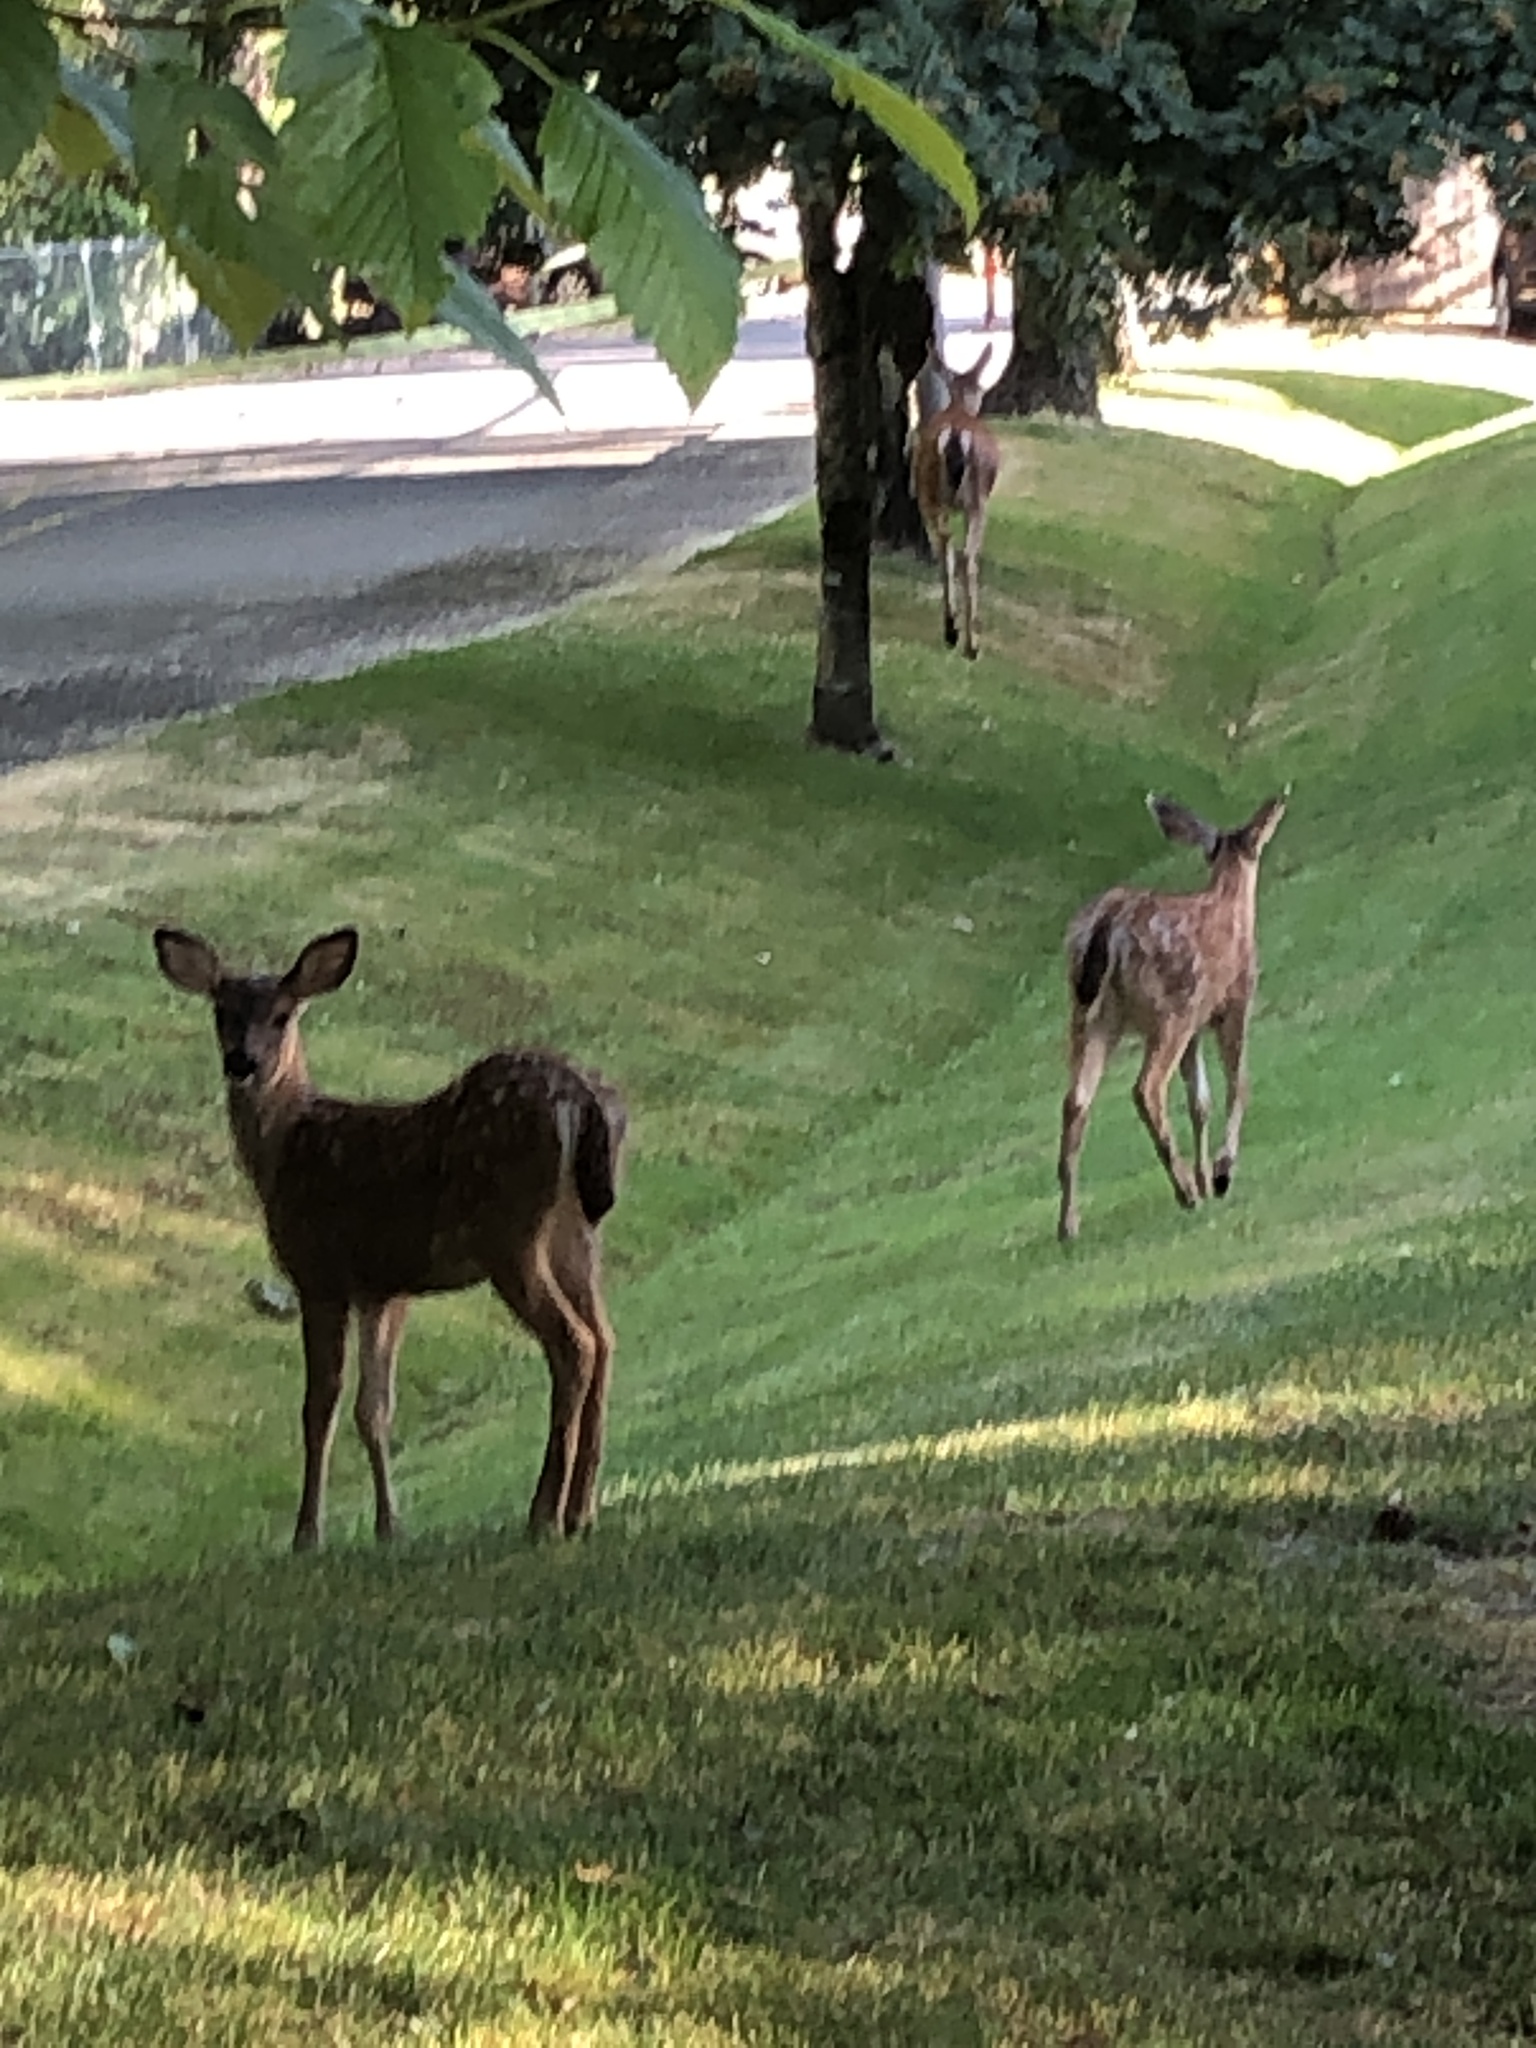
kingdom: Animalia
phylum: Chordata
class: Mammalia
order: Artiodactyla
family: Cervidae
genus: Odocoileus
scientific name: Odocoileus hemionus
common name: Mule deer
